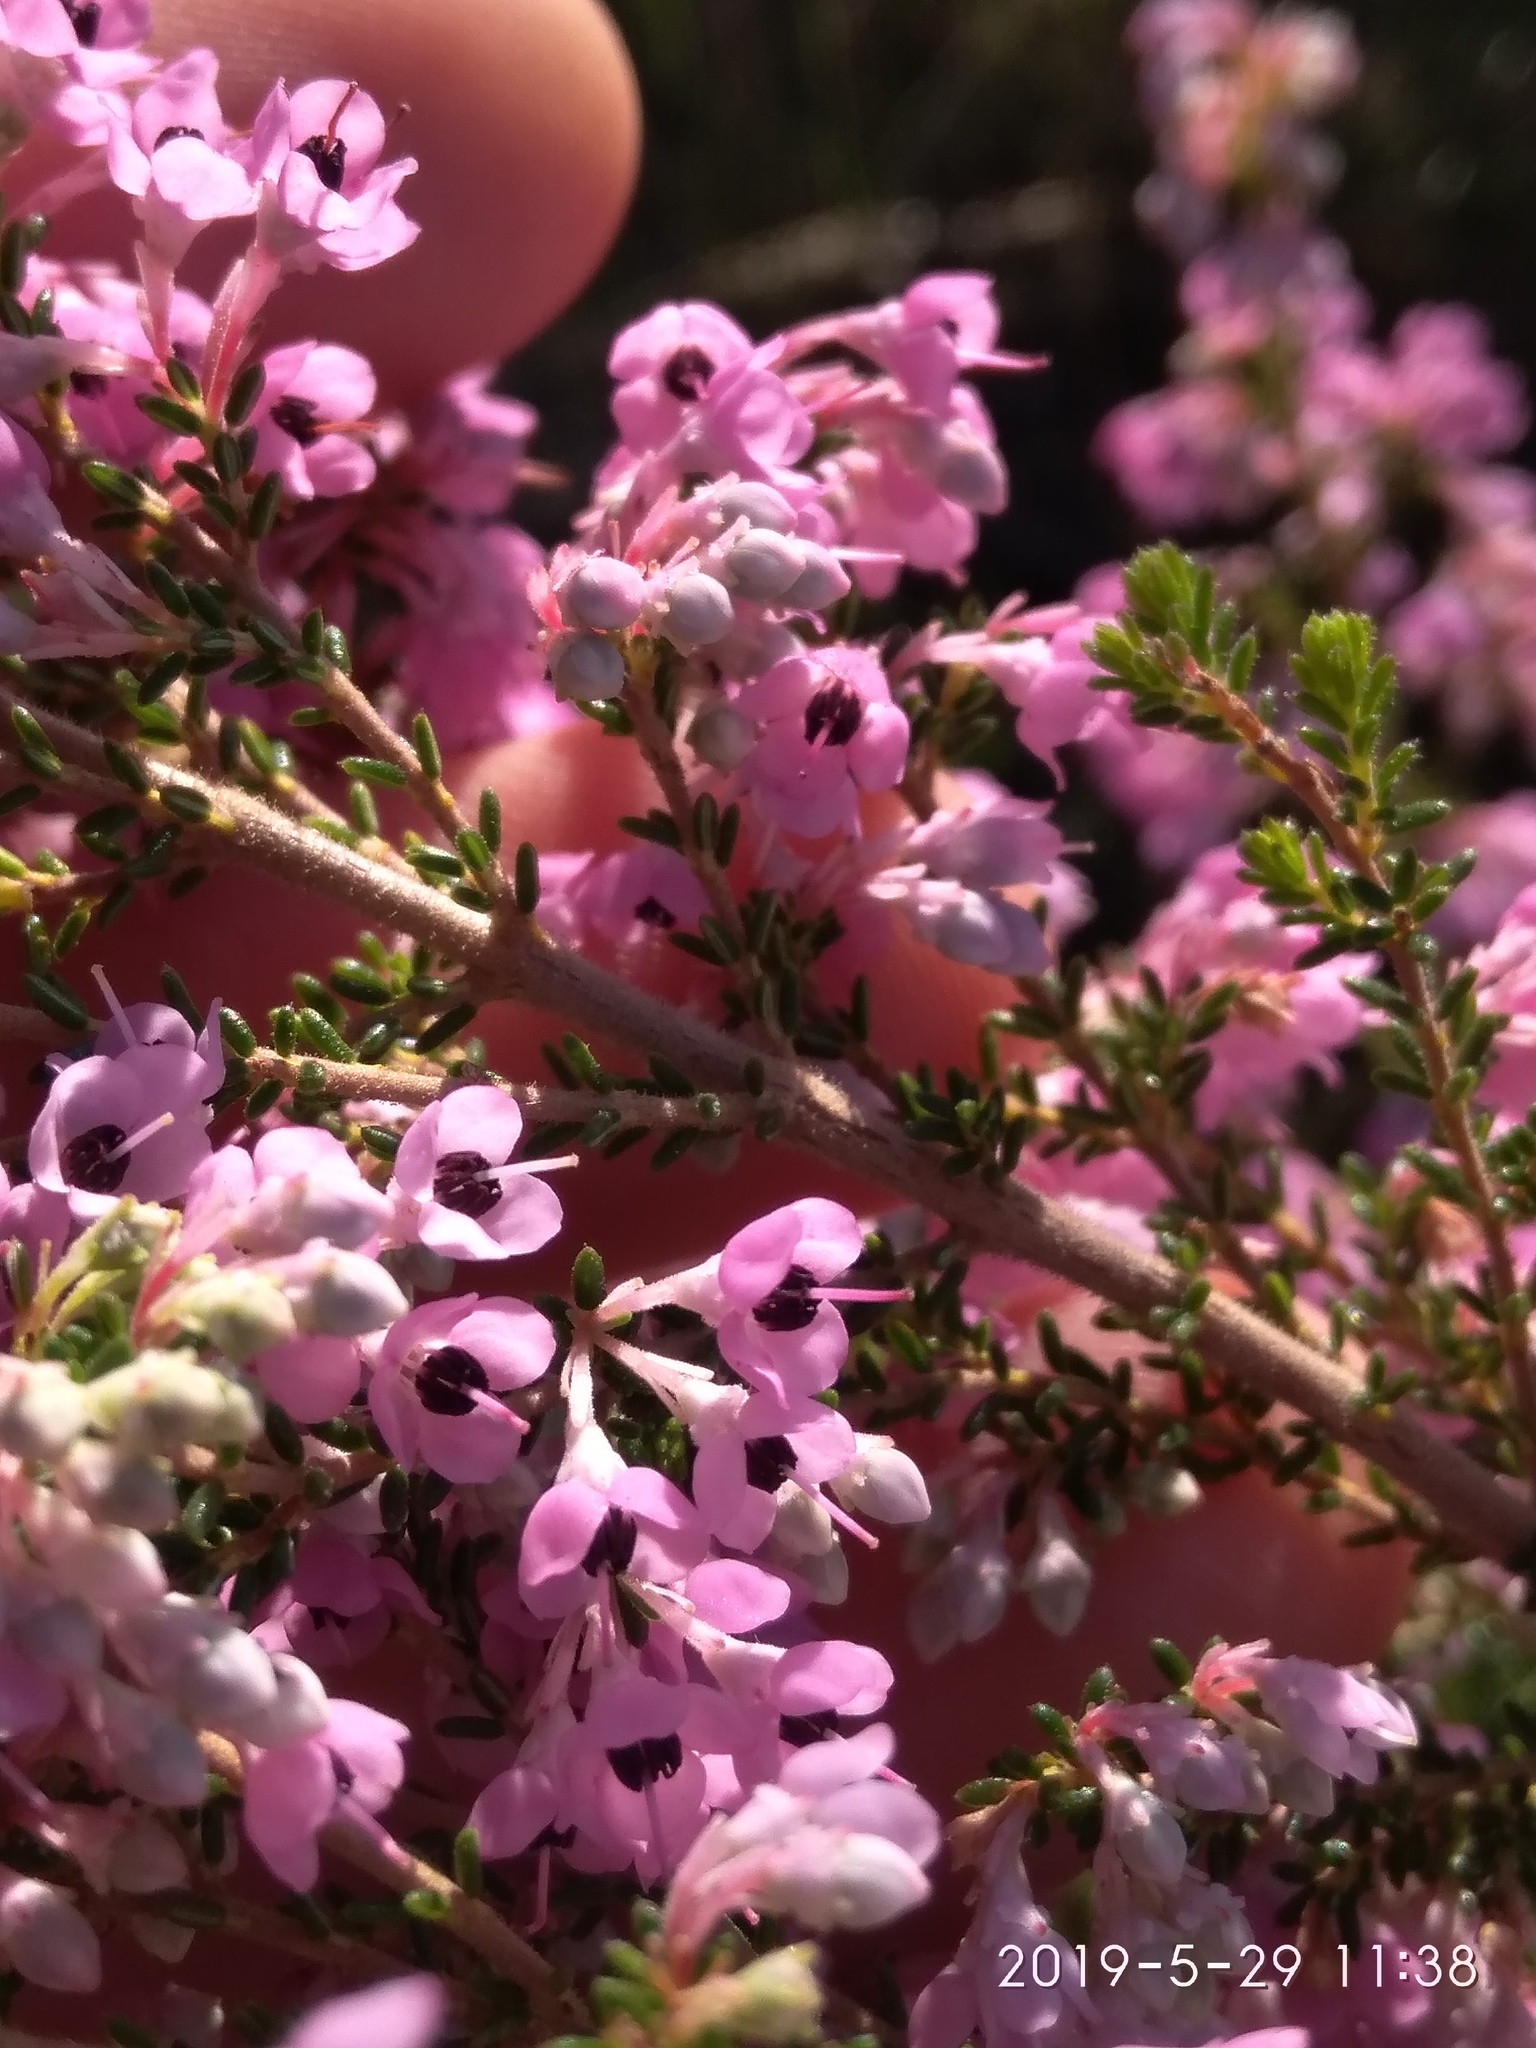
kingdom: Plantae
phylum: Tracheophyta
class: Magnoliopsida
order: Ericales
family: Ericaceae
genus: Erica
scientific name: Erica melanthera
